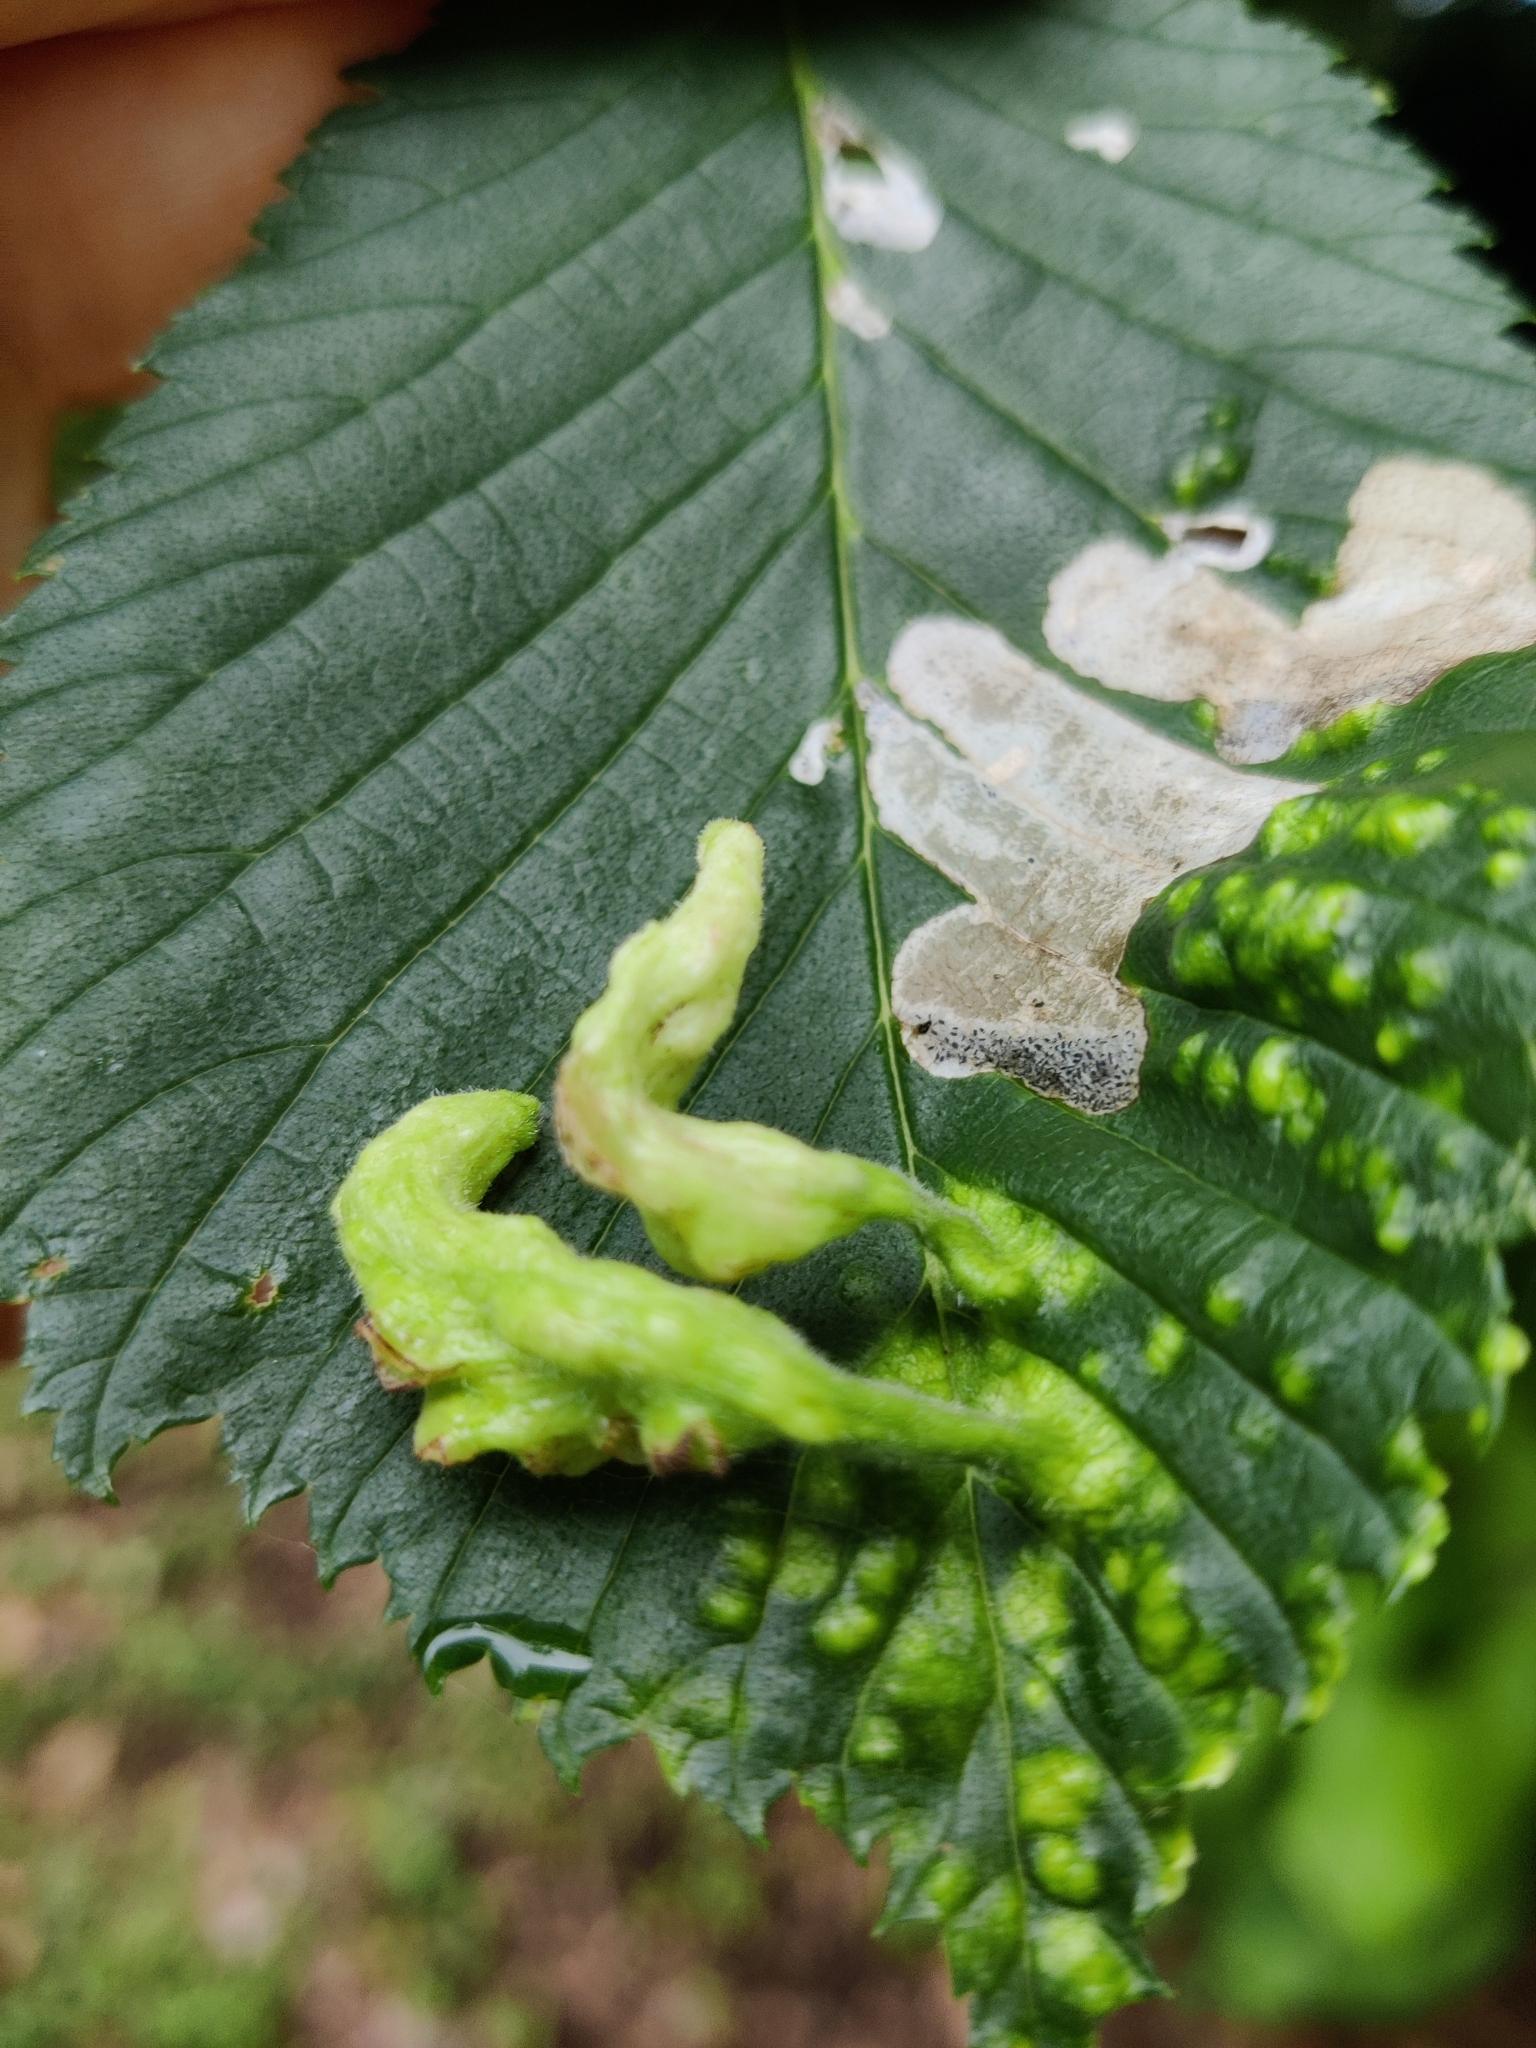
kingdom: Animalia
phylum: Arthropoda
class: Insecta
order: Hemiptera
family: Aphididae
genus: Tetraneura
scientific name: Tetraneura nigriabdominalis
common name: Aphid
